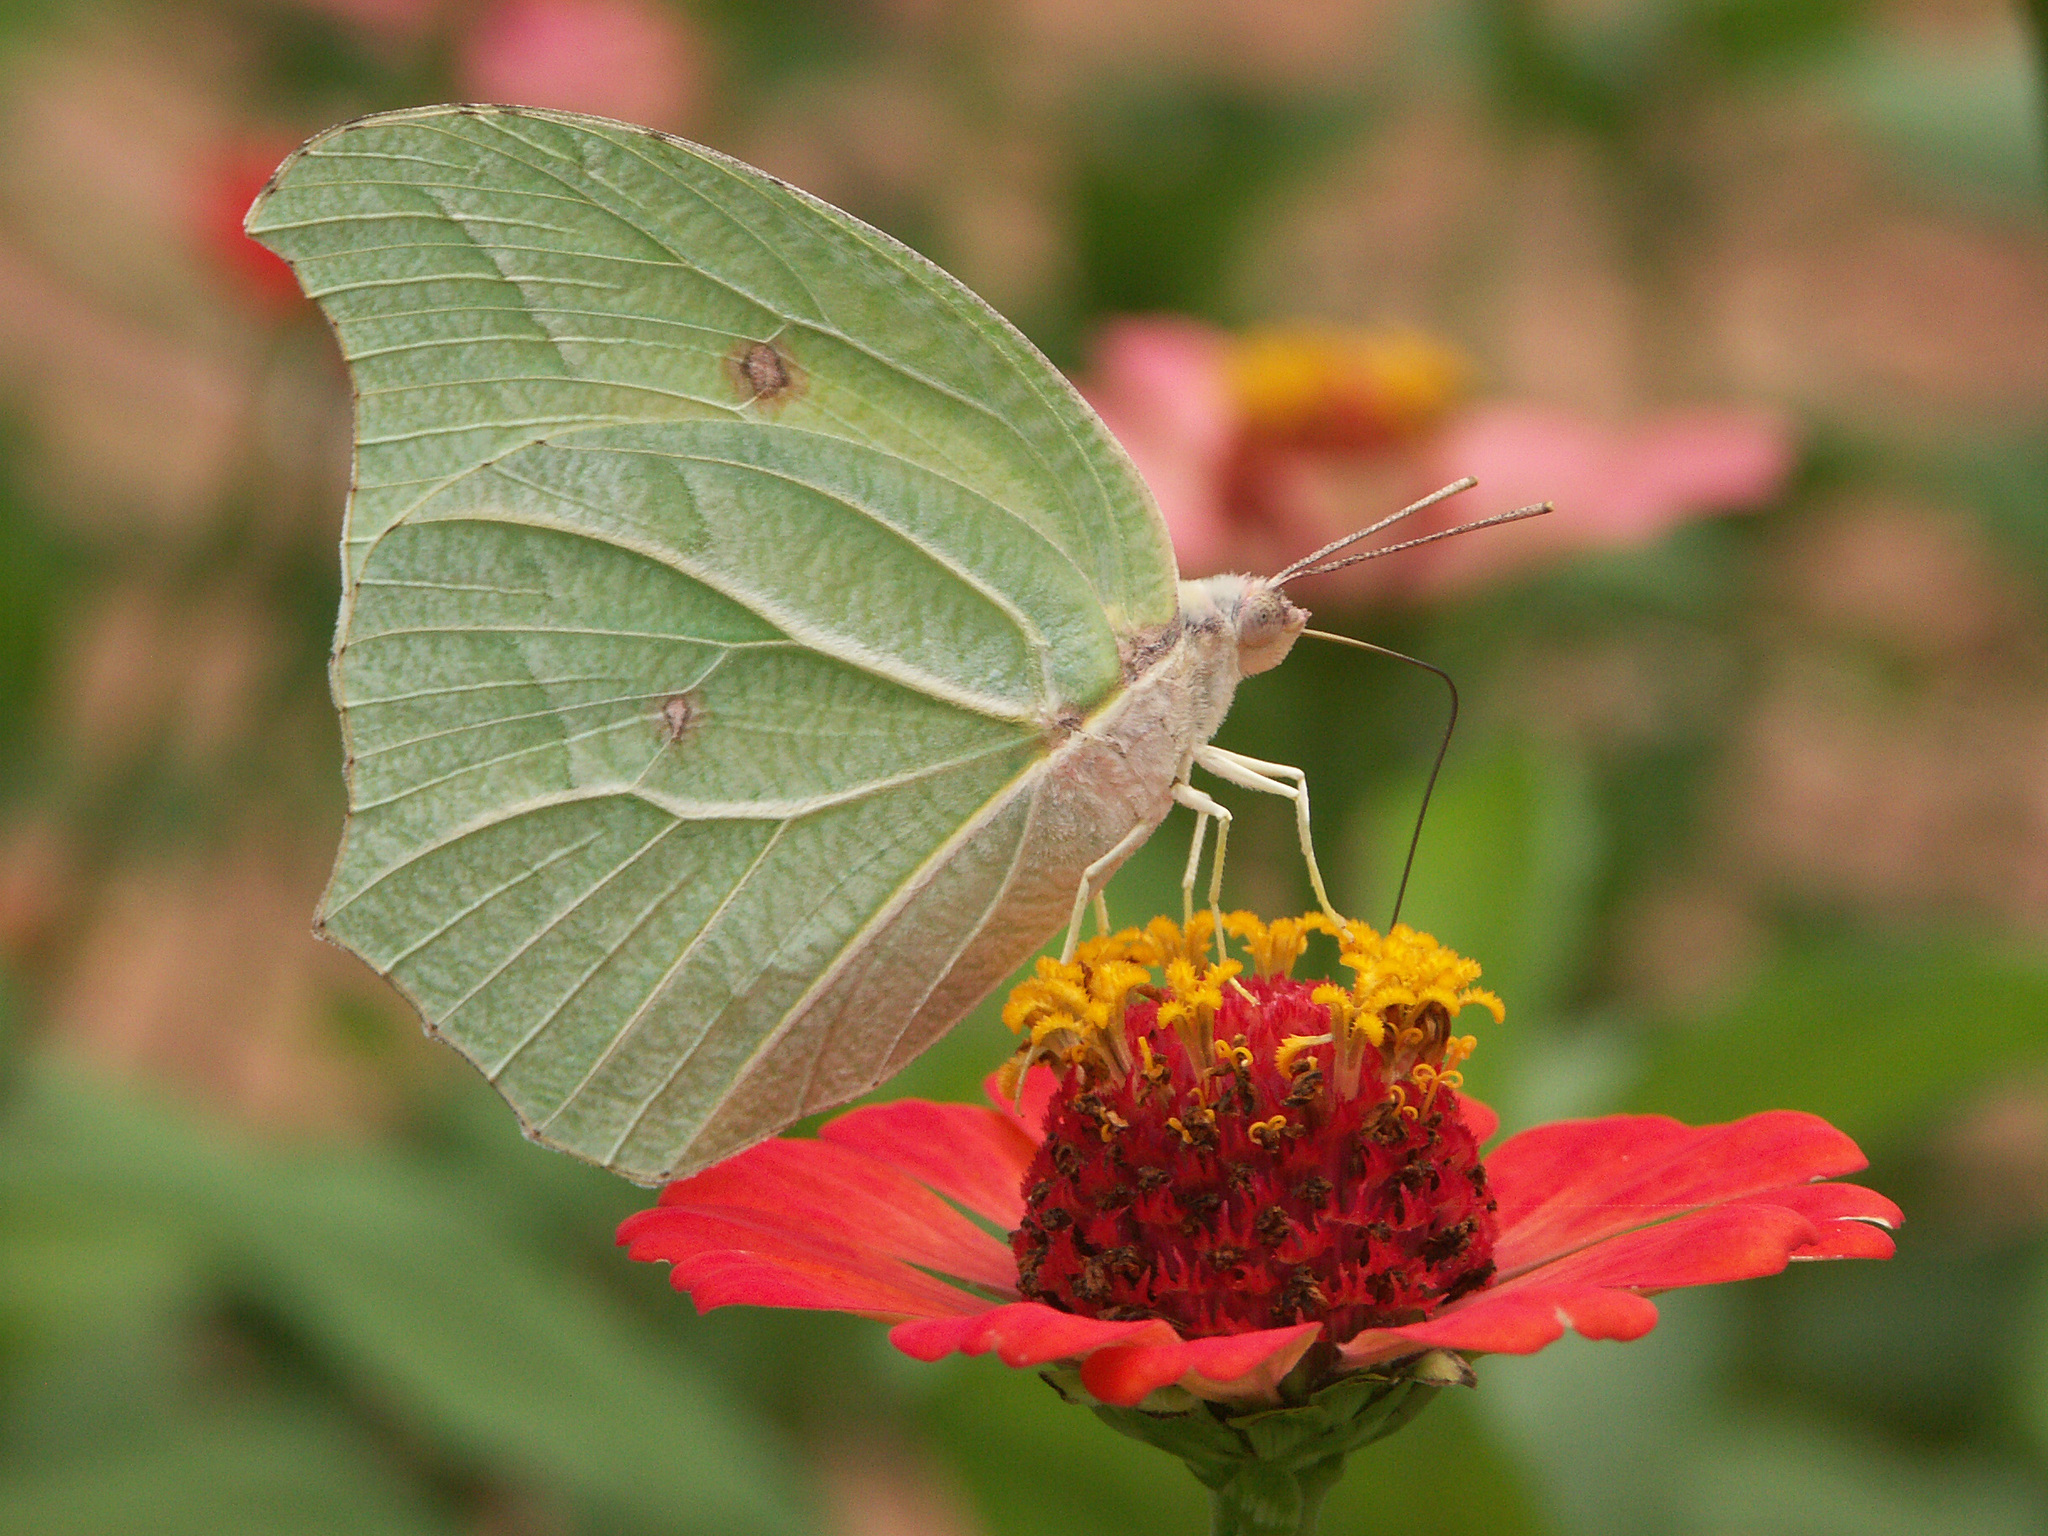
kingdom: Animalia
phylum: Arthropoda
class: Insecta
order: Lepidoptera
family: Pieridae
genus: Anteos
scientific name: Anteos clorinde
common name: White angled sulphur
